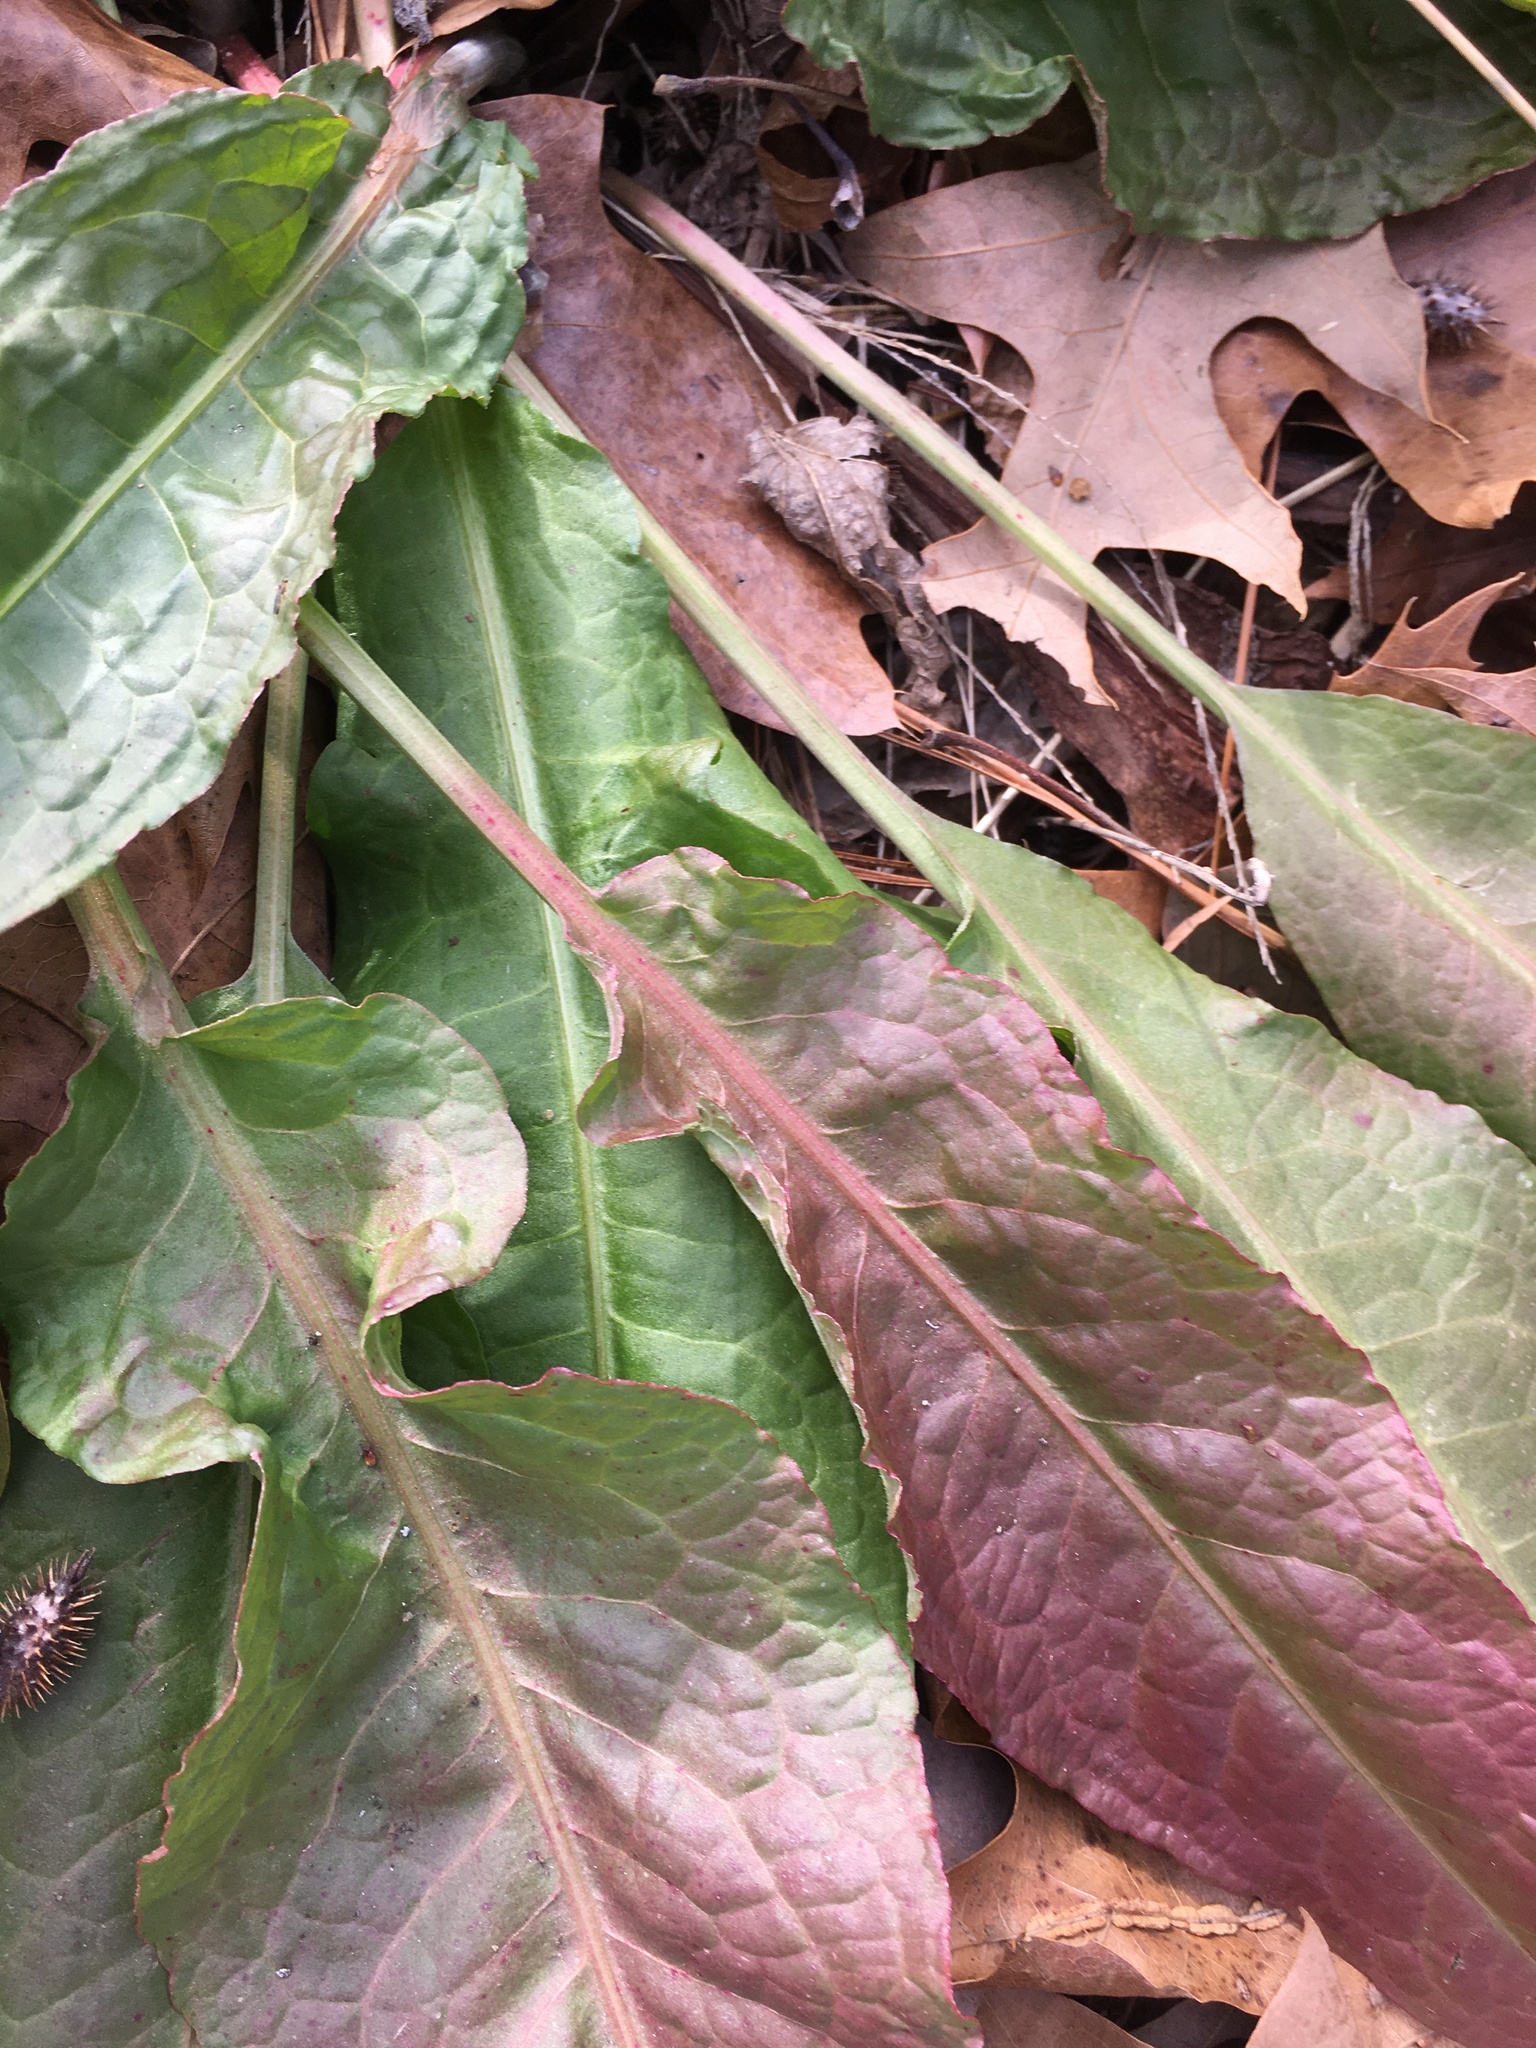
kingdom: Plantae
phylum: Tracheophyta
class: Magnoliopsida
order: Caryophyllales
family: Polygonaceae
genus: Rumex
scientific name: Rumex crispus
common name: Curled dock
